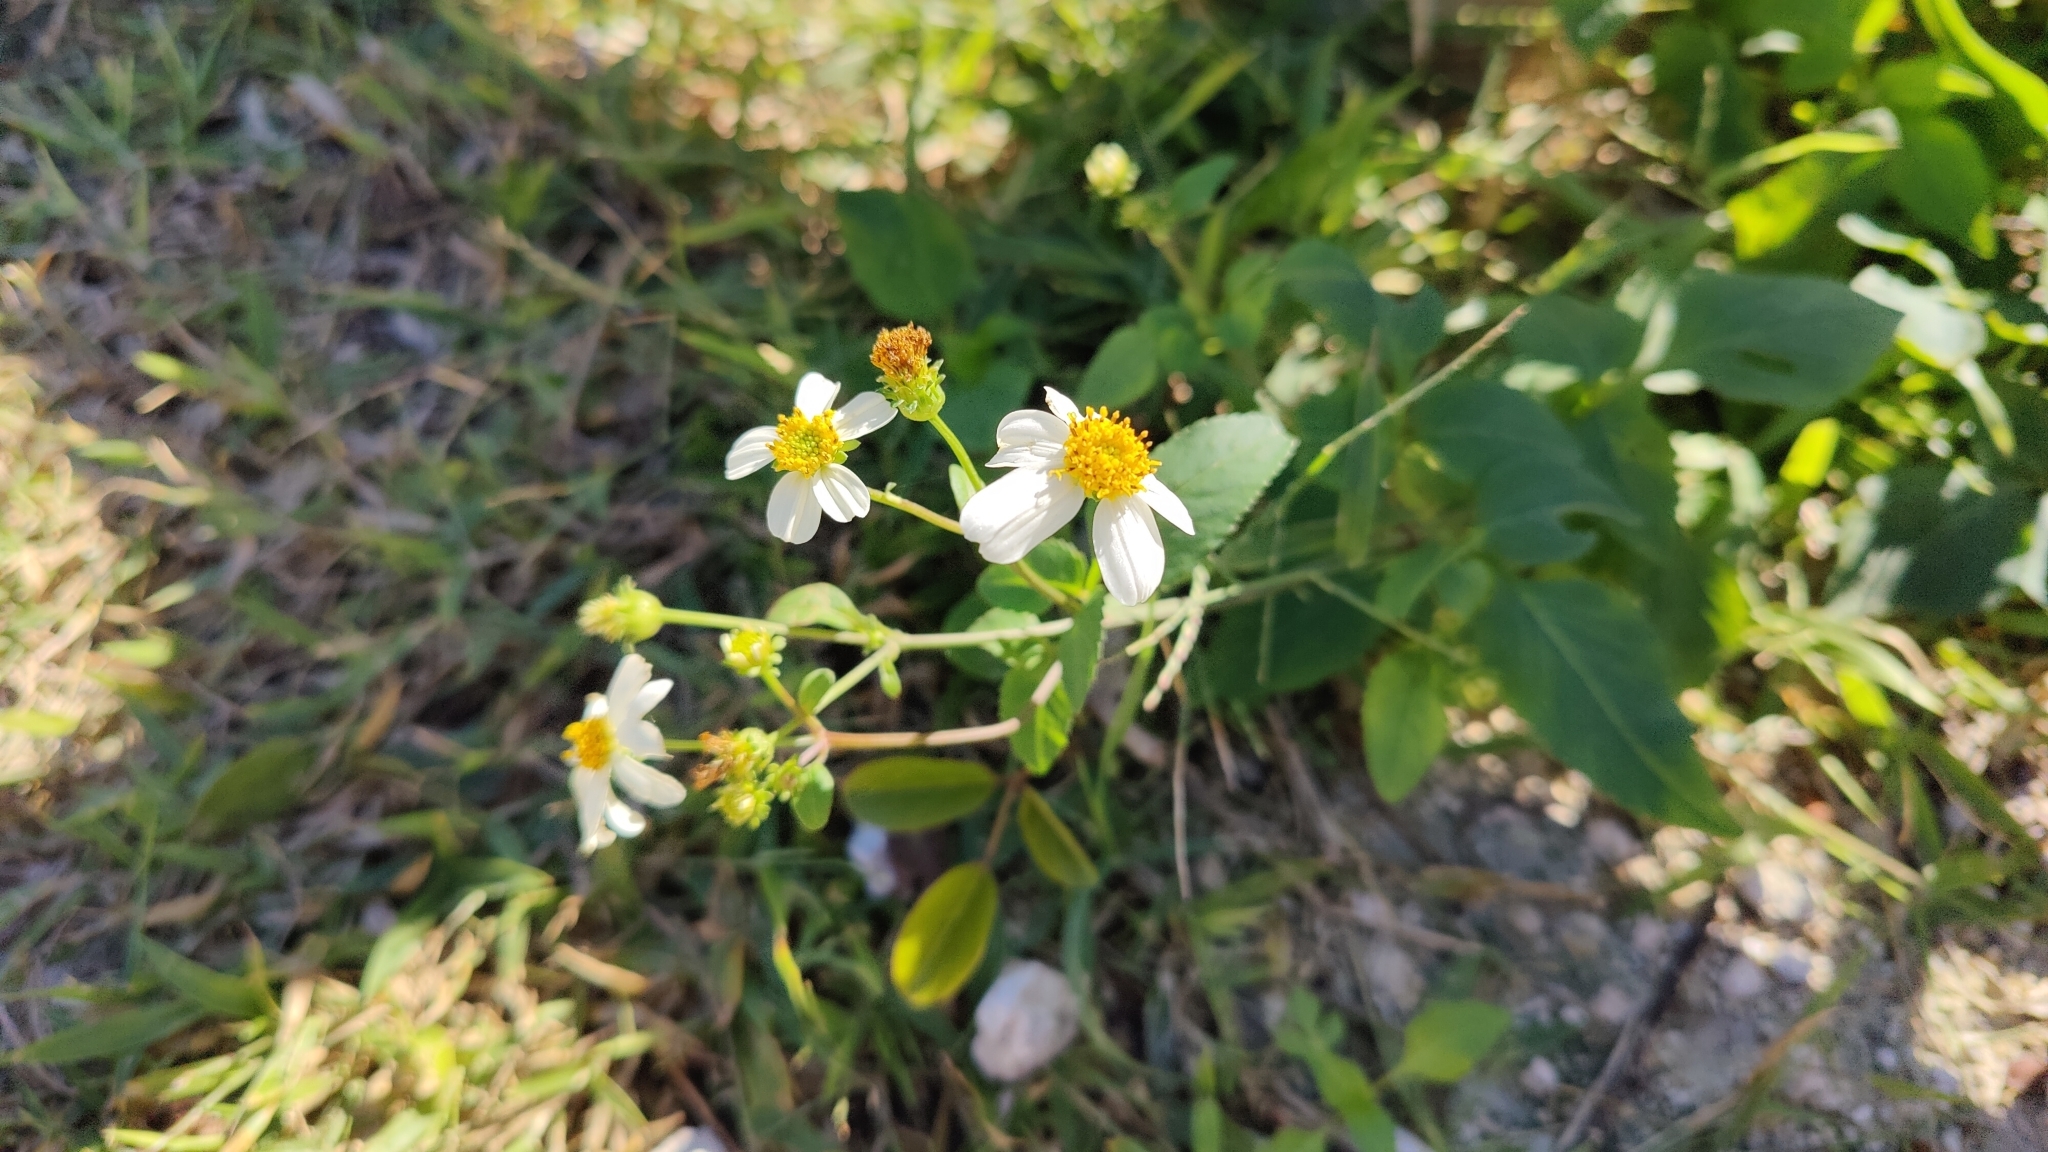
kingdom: Plantae
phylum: Tracheophyta
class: Magnoliopsida
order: Asterales
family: Asteraceae
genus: Bidens
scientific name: Bidens alba
